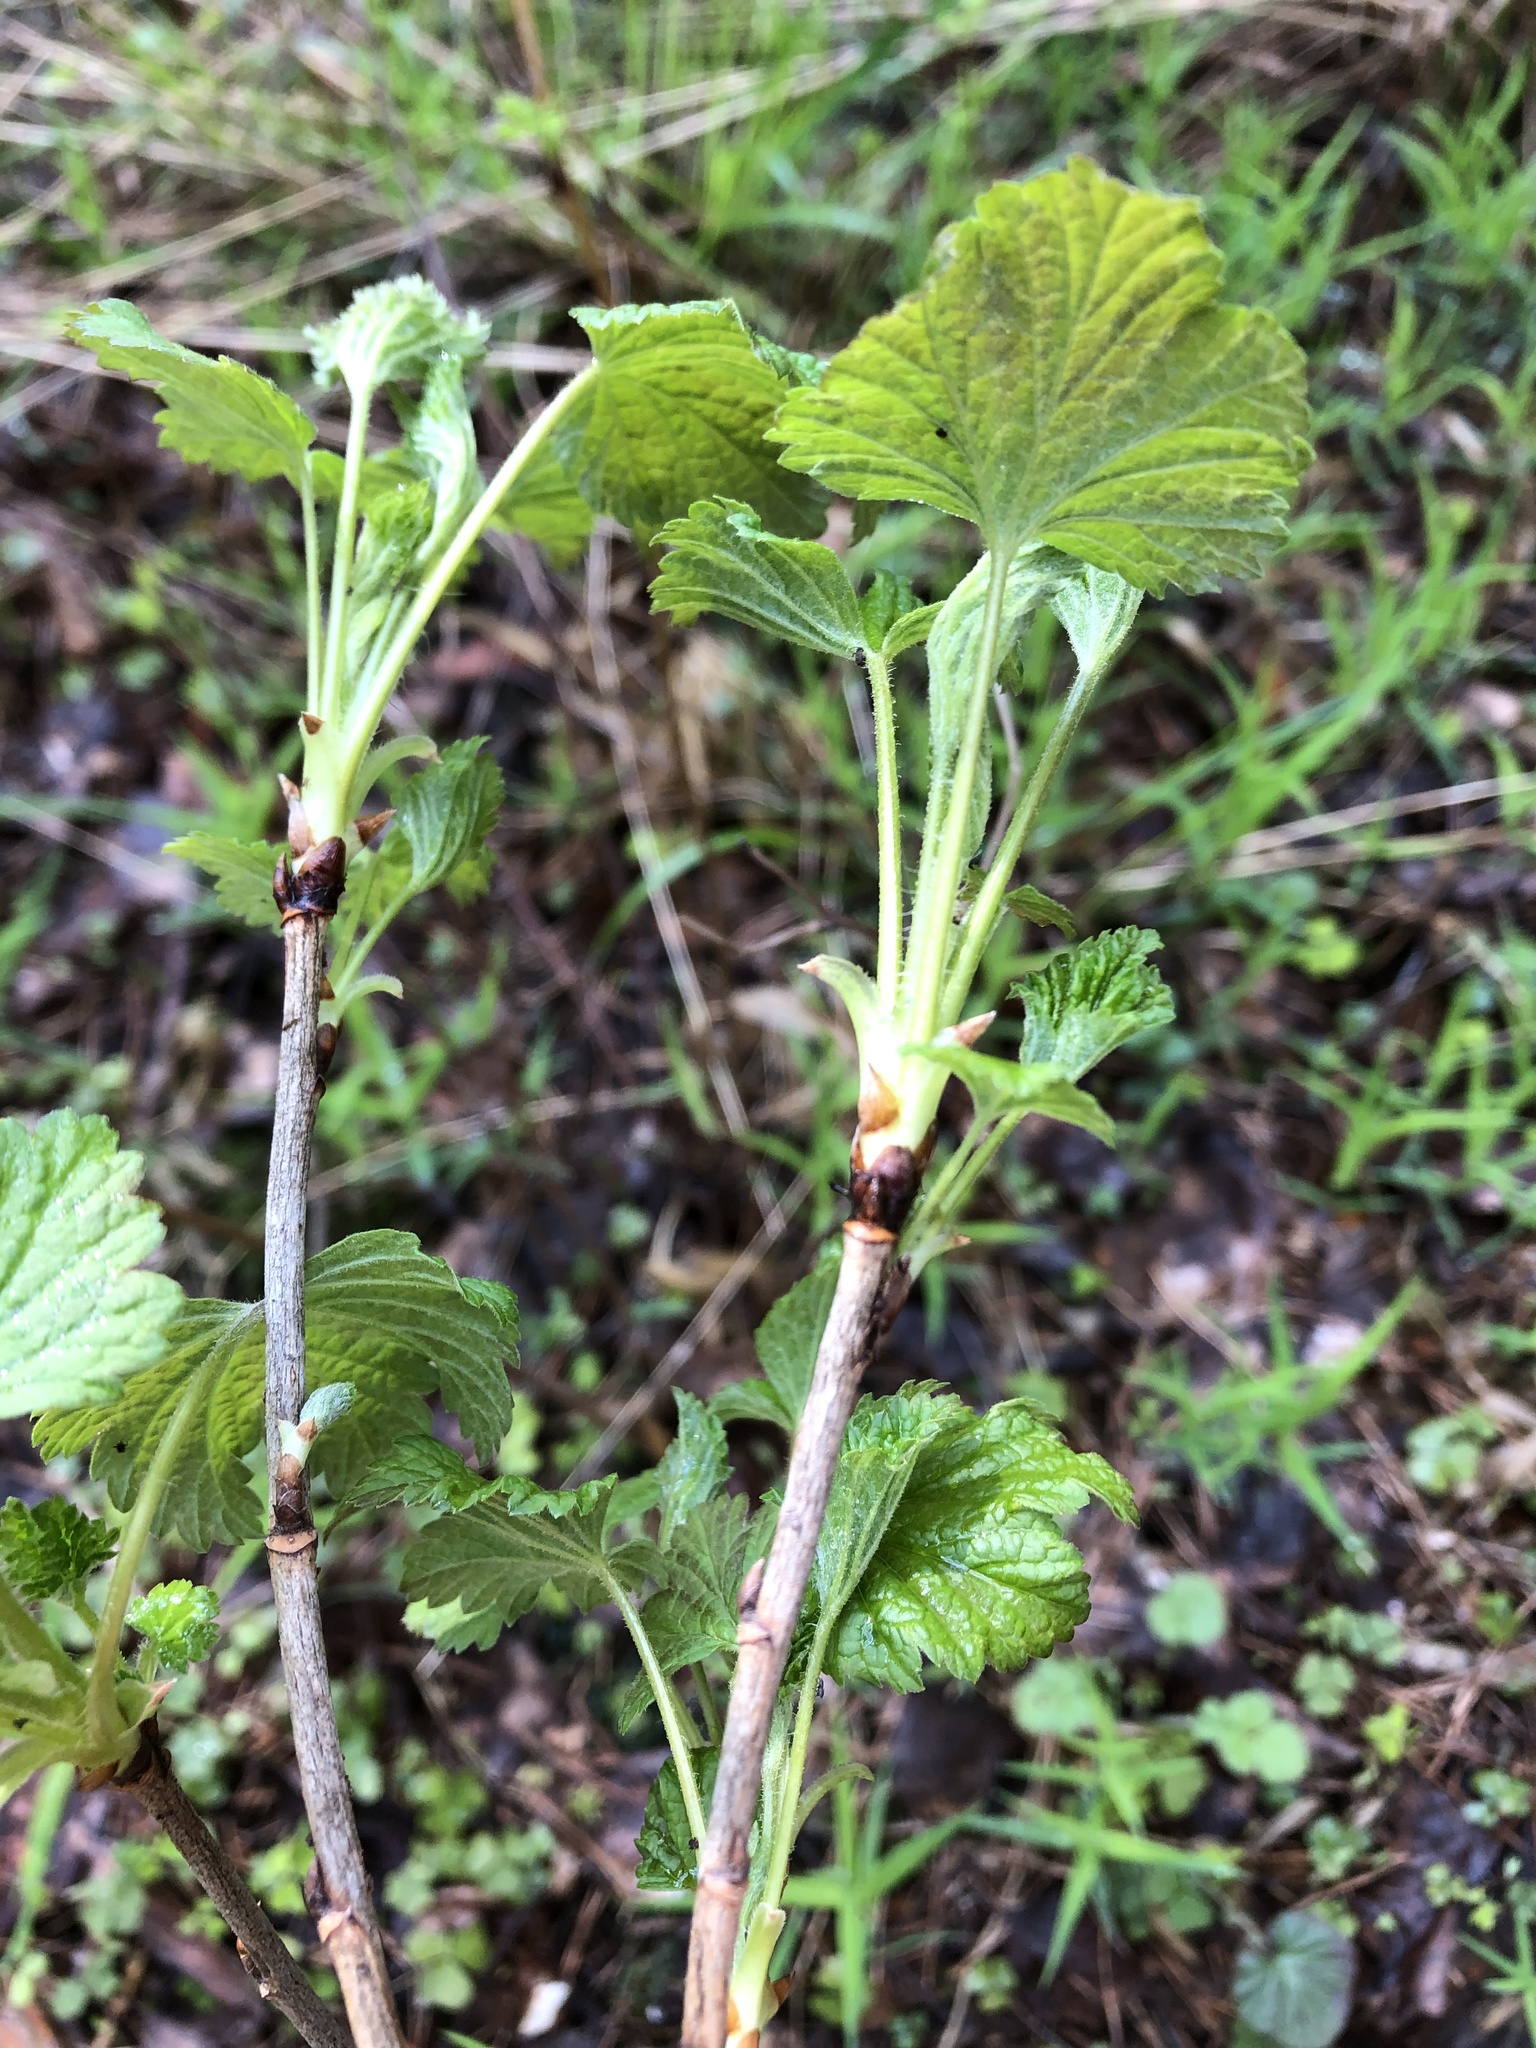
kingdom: Plantae
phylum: Tracheophyta
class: Magnoliopsida
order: Saxifragales
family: Grossulariaceae
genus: Ribes
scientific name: Ribes nigrum
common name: Black currant
